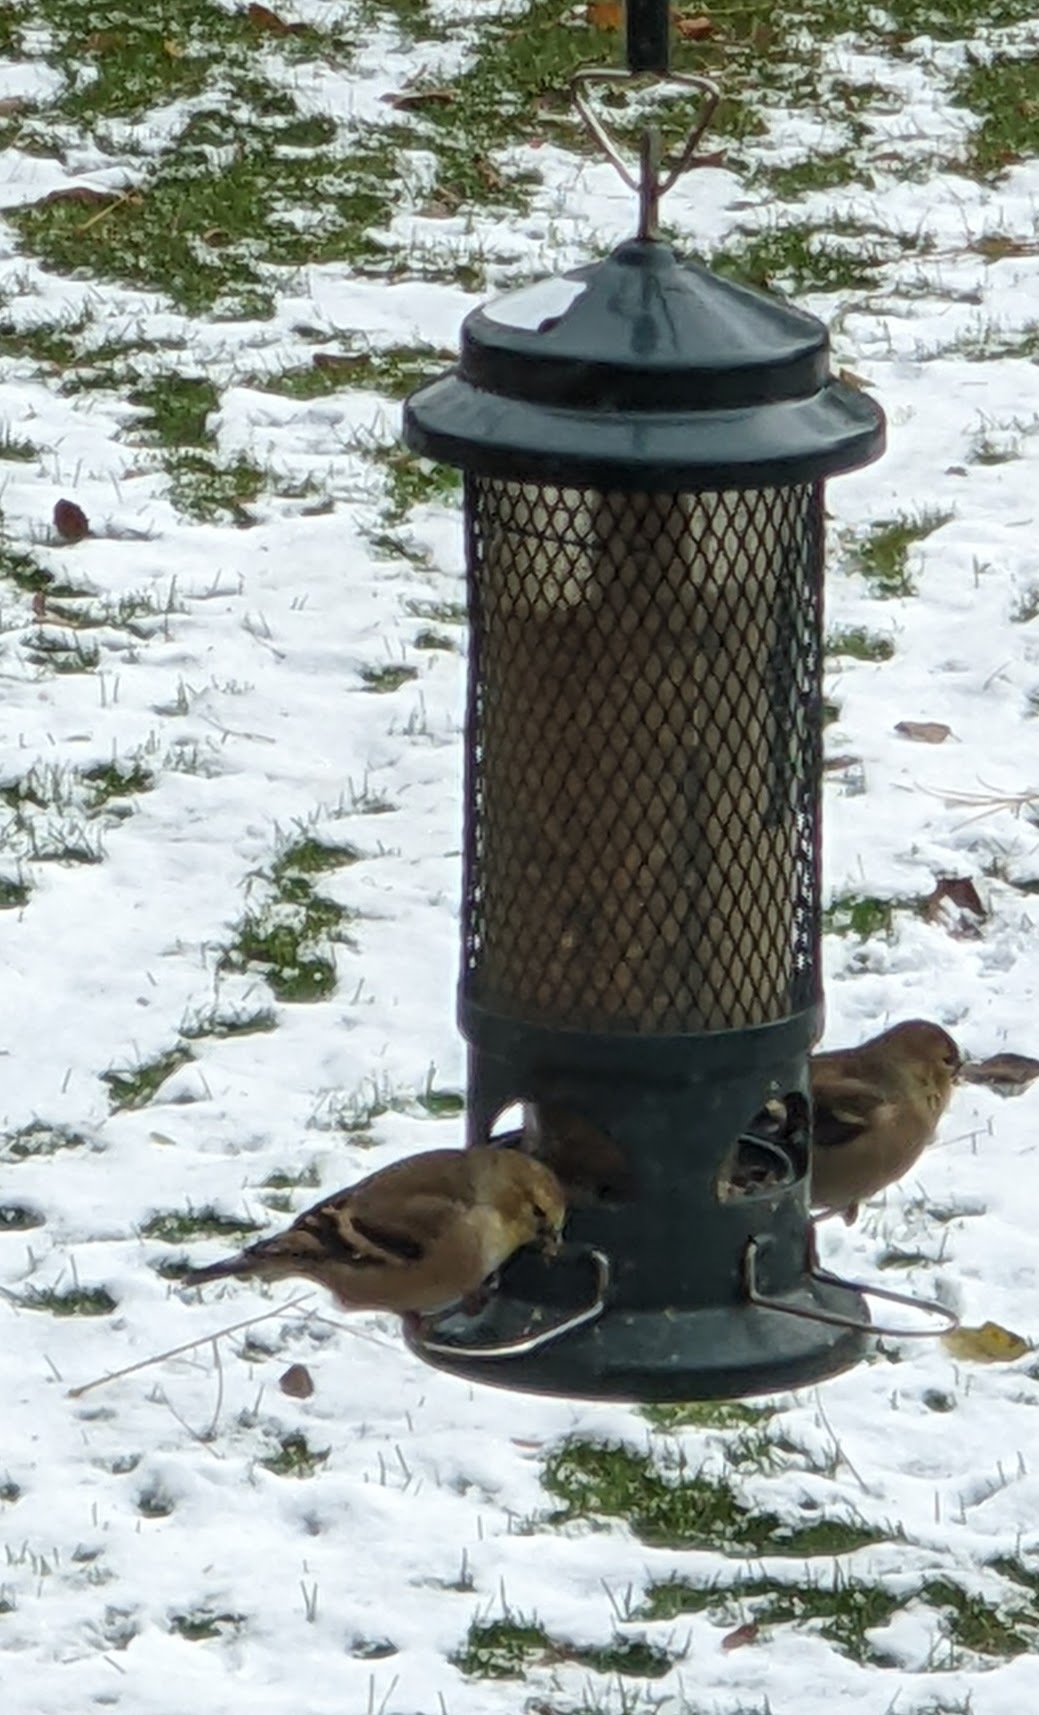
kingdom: Animalia
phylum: Chordata
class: Aves
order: Passeriformes
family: Fringillidae
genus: Spinus
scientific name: Spinus tristis
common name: American goldfinch
